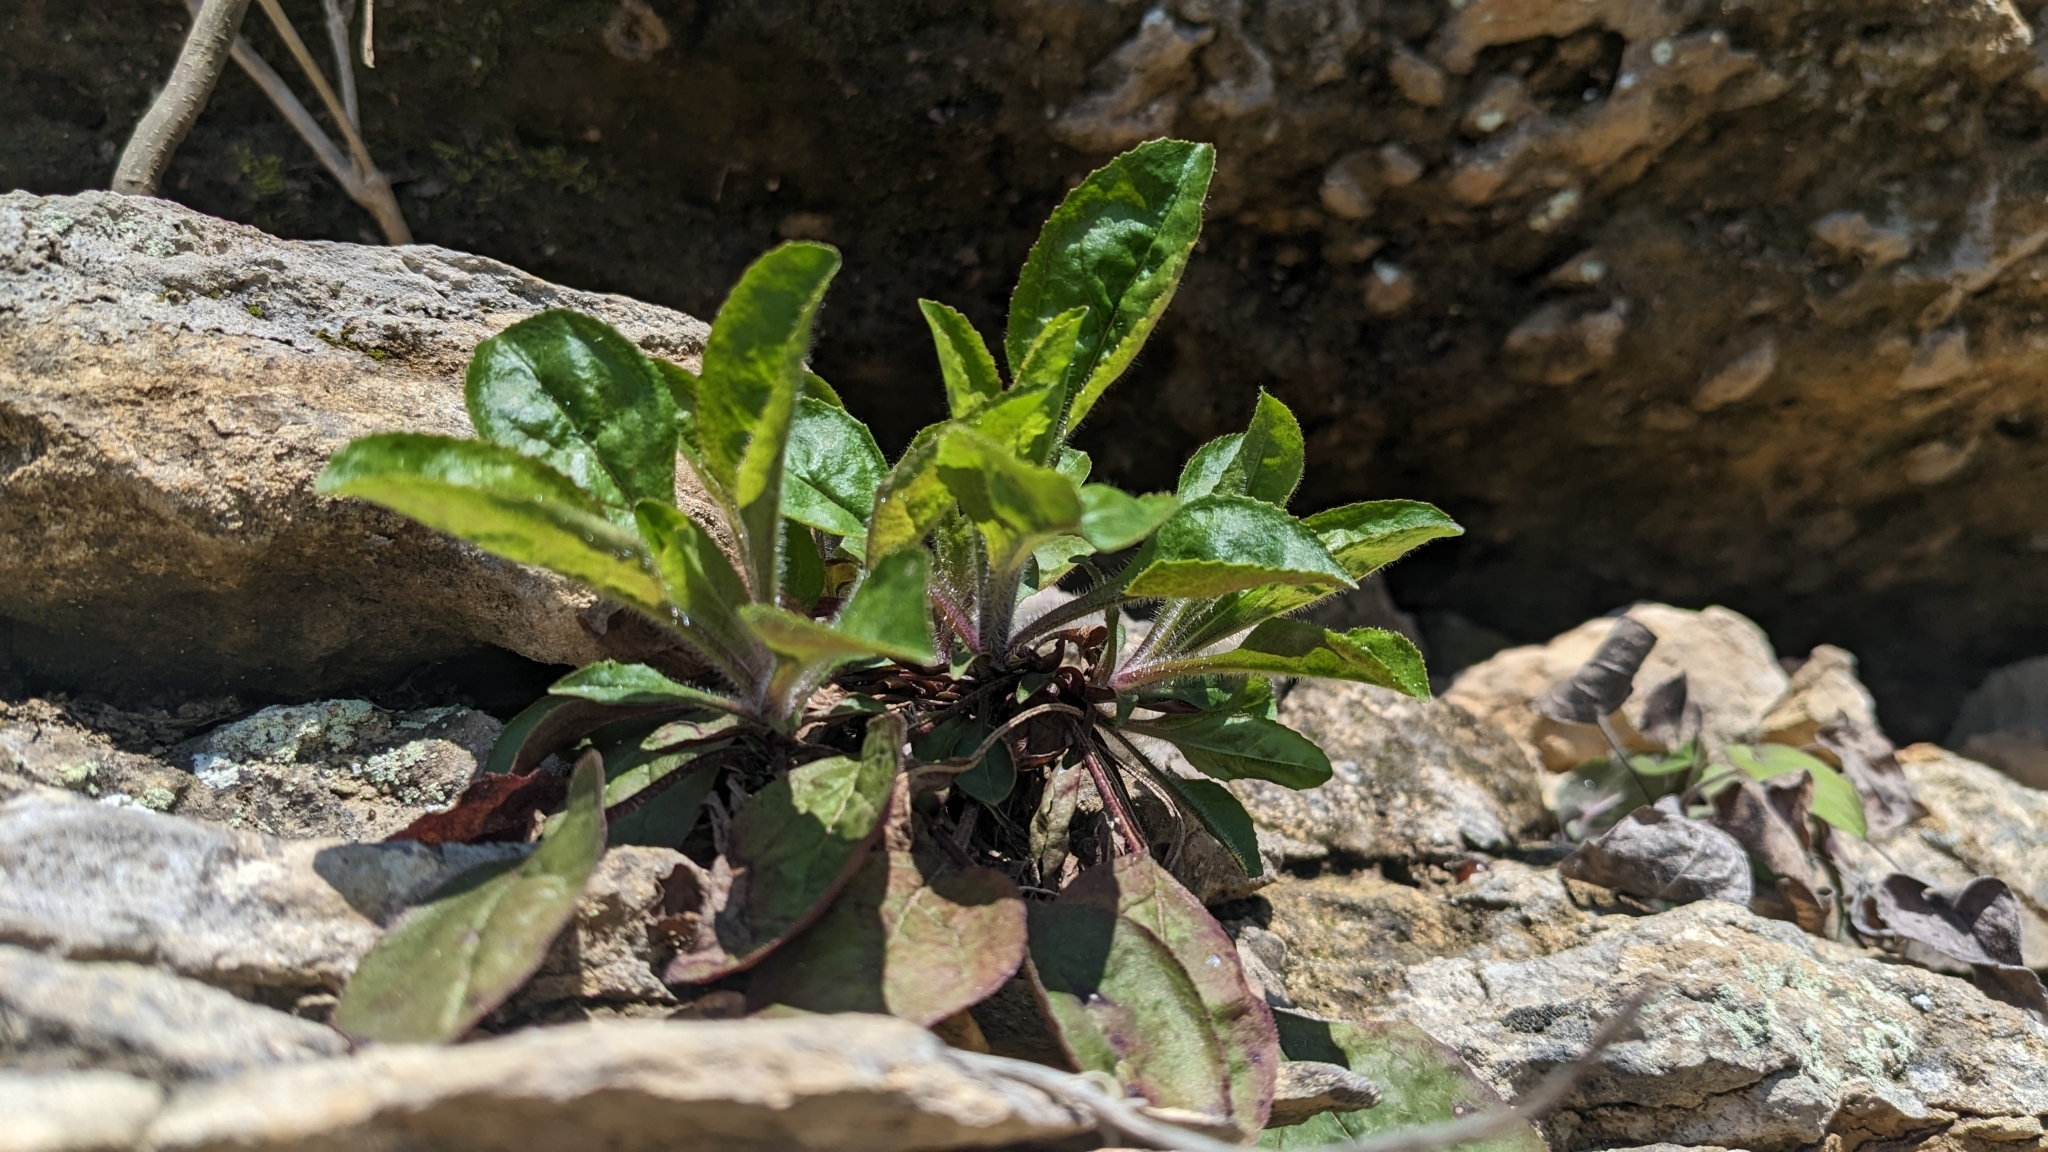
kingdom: Plantae
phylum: Tracheophyta
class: Magnoliopsida
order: Lamiales
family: Plantaginaceae
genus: Penstemon
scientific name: Penstemon tenuiflorus
